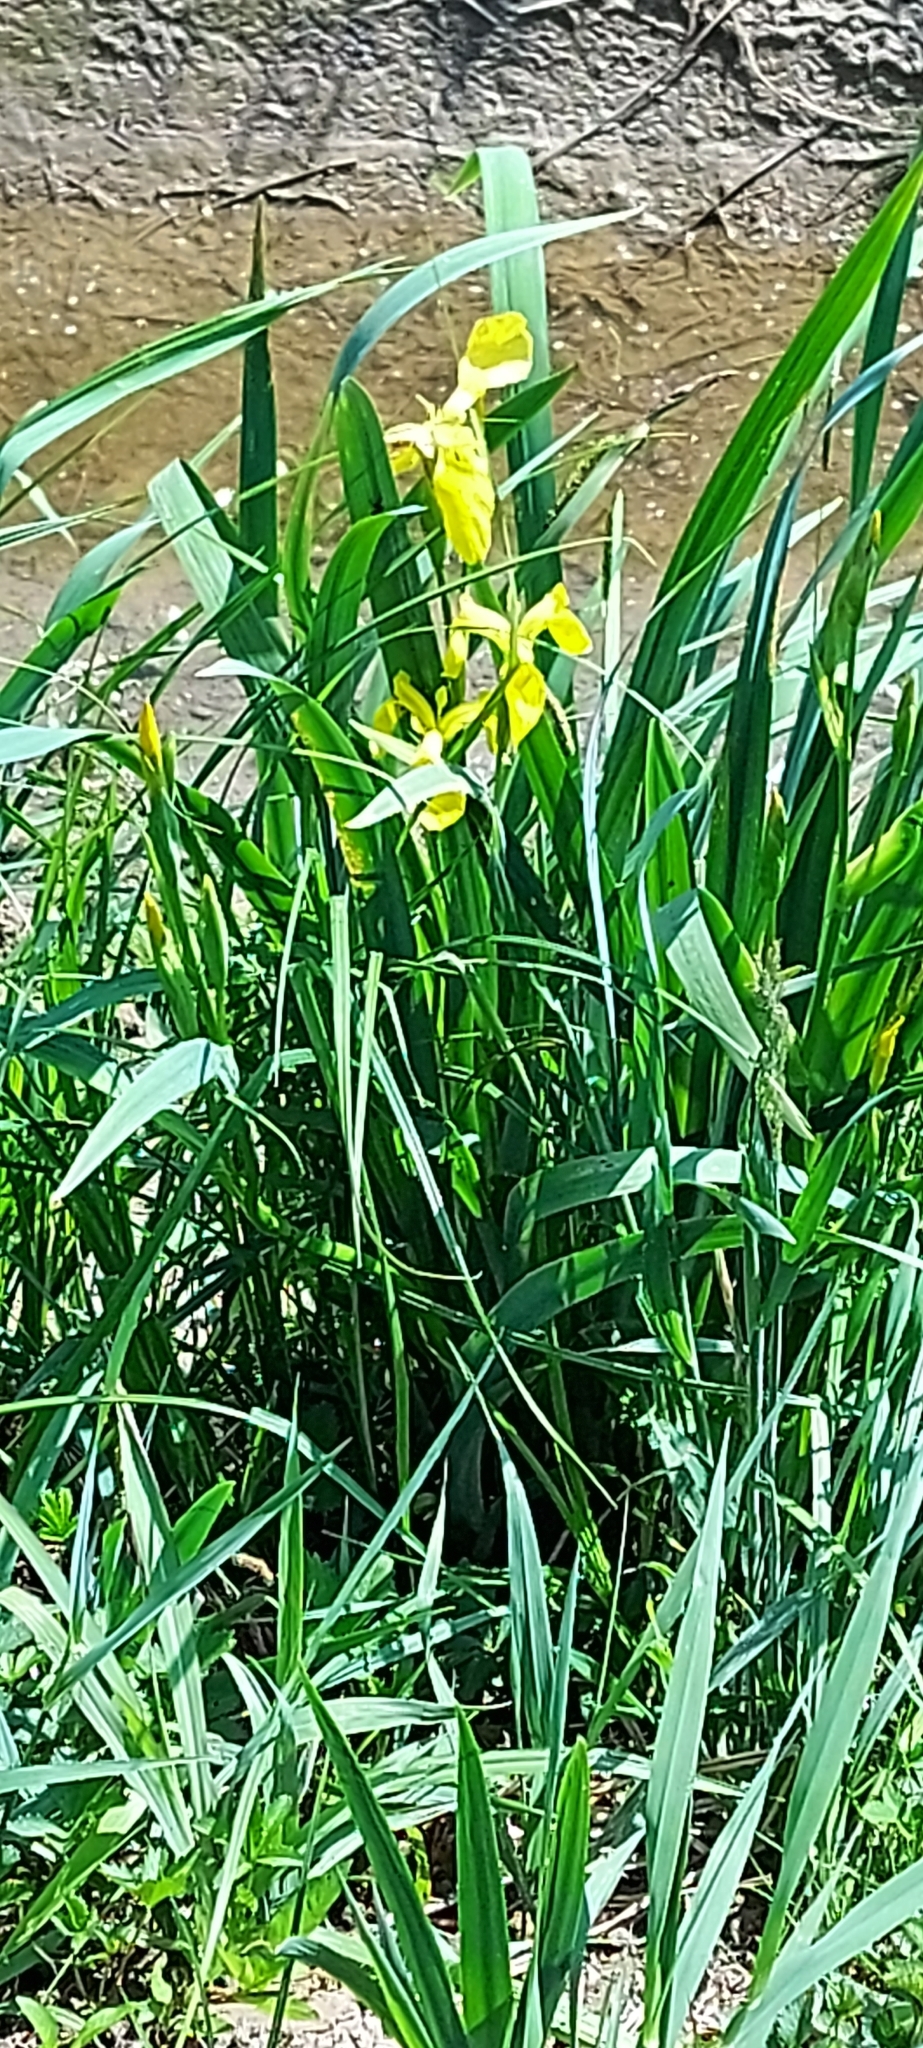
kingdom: Plantae
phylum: Tracheophyta
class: Liliopsida
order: Asparagales
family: Iridaceae
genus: Iris
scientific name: Iris pseudacorus
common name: Yellow flag
